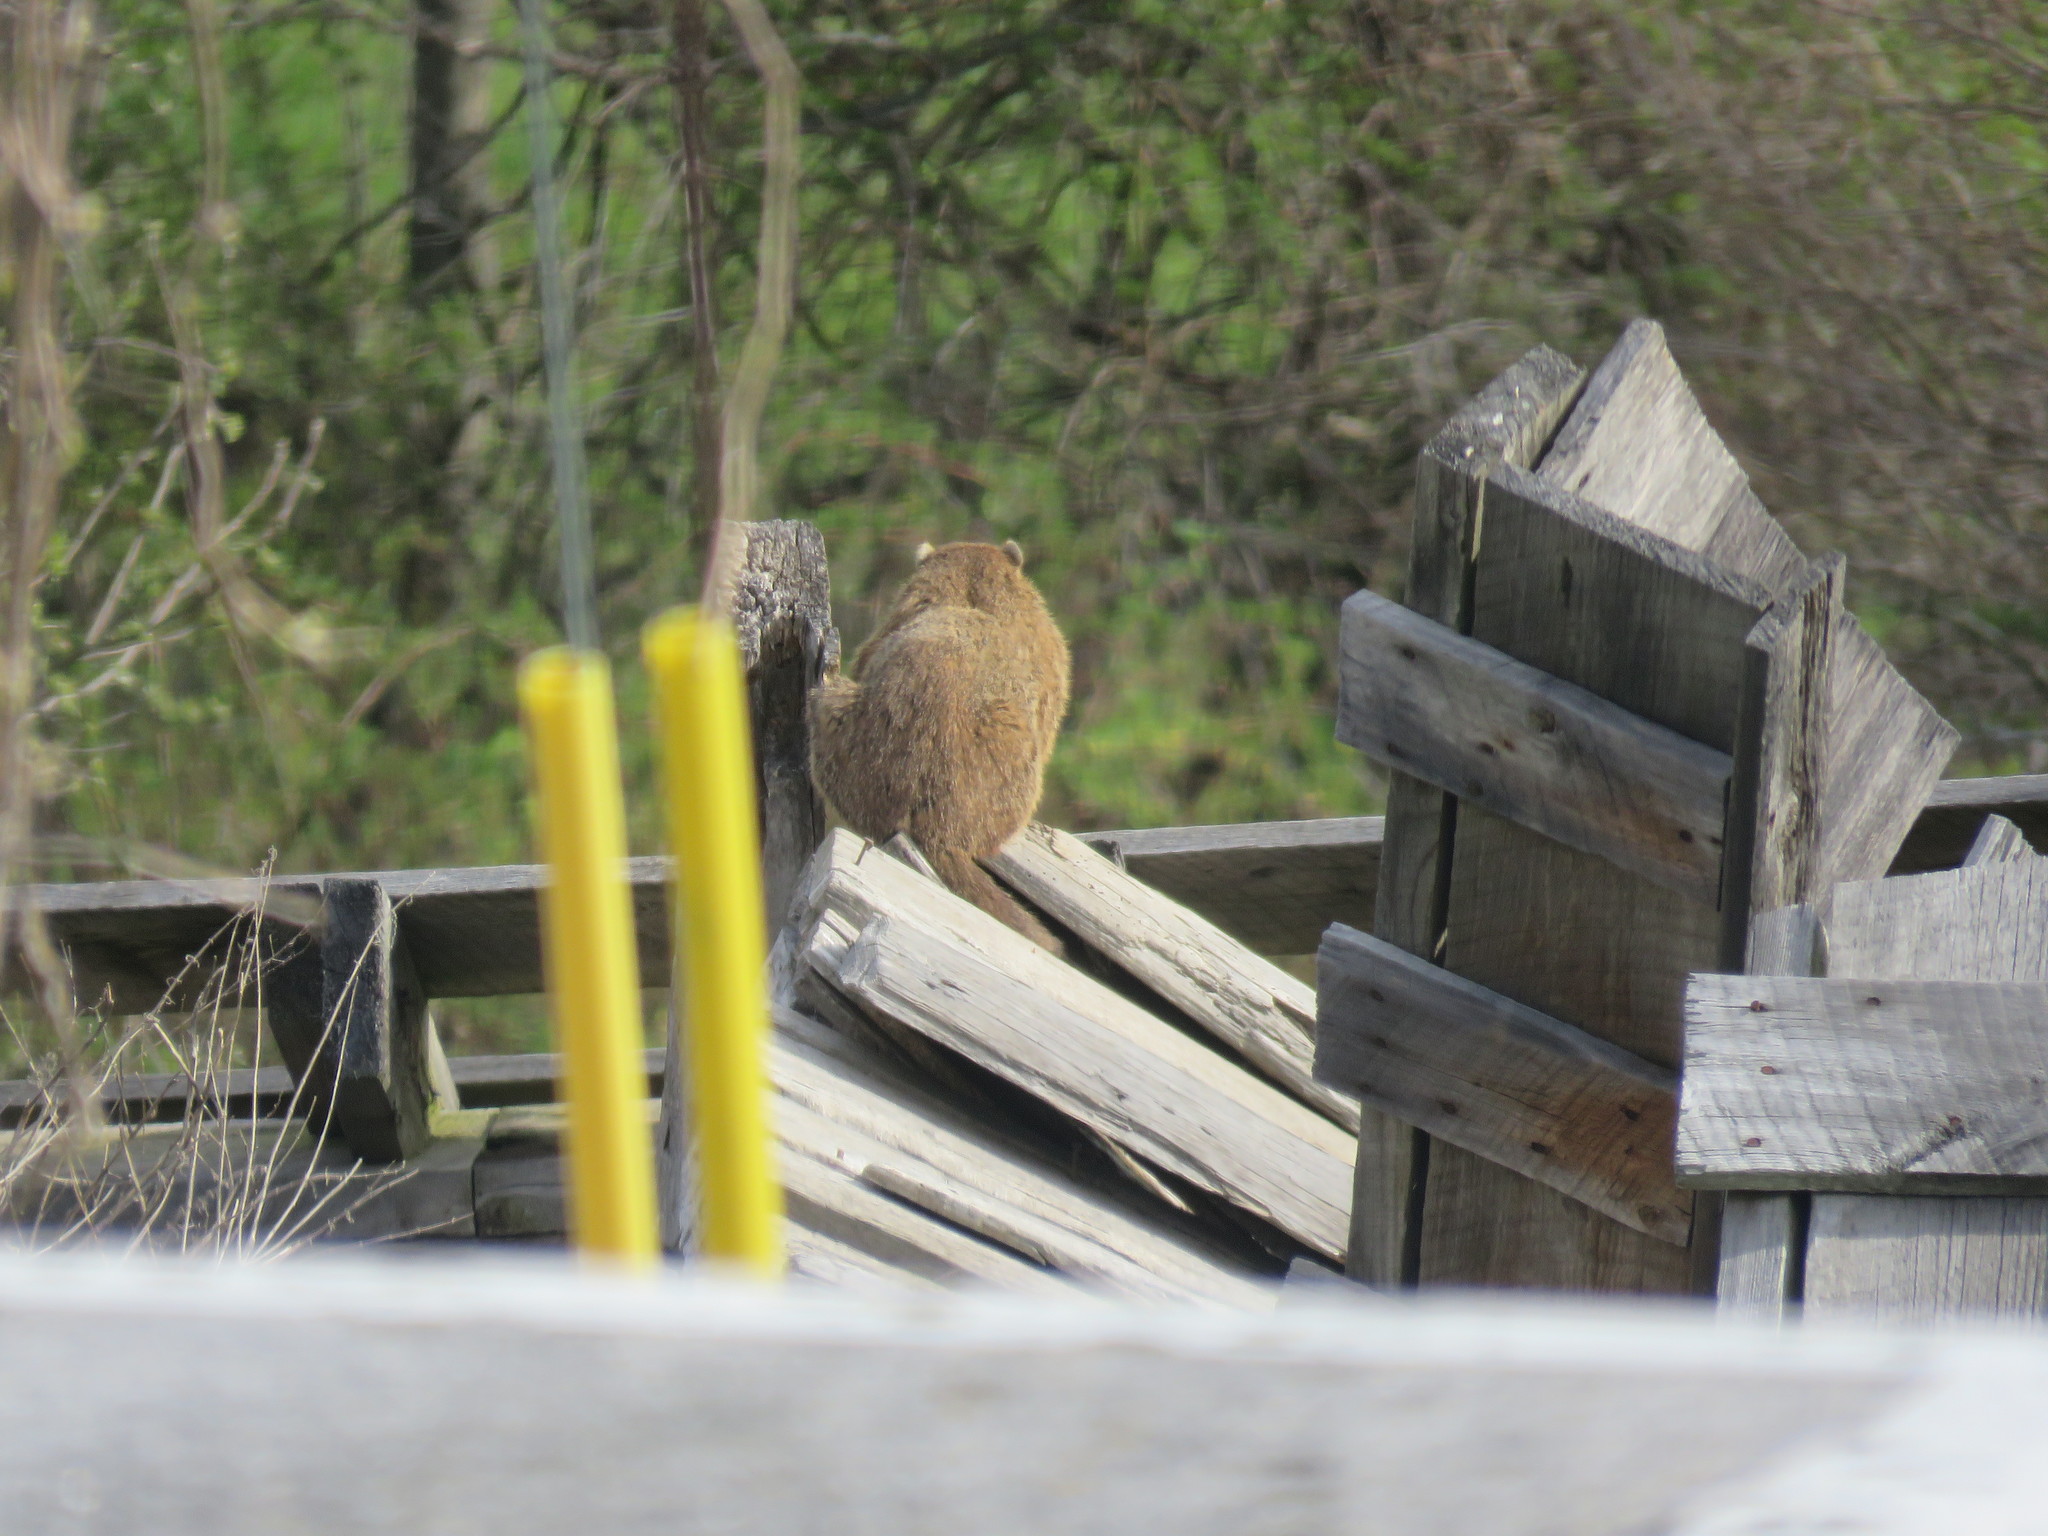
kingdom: Animalia
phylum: Chordata
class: Mammalia
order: Rodentia
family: Sciuridae
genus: Marmota
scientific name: Marmota monax
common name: Groundhog
